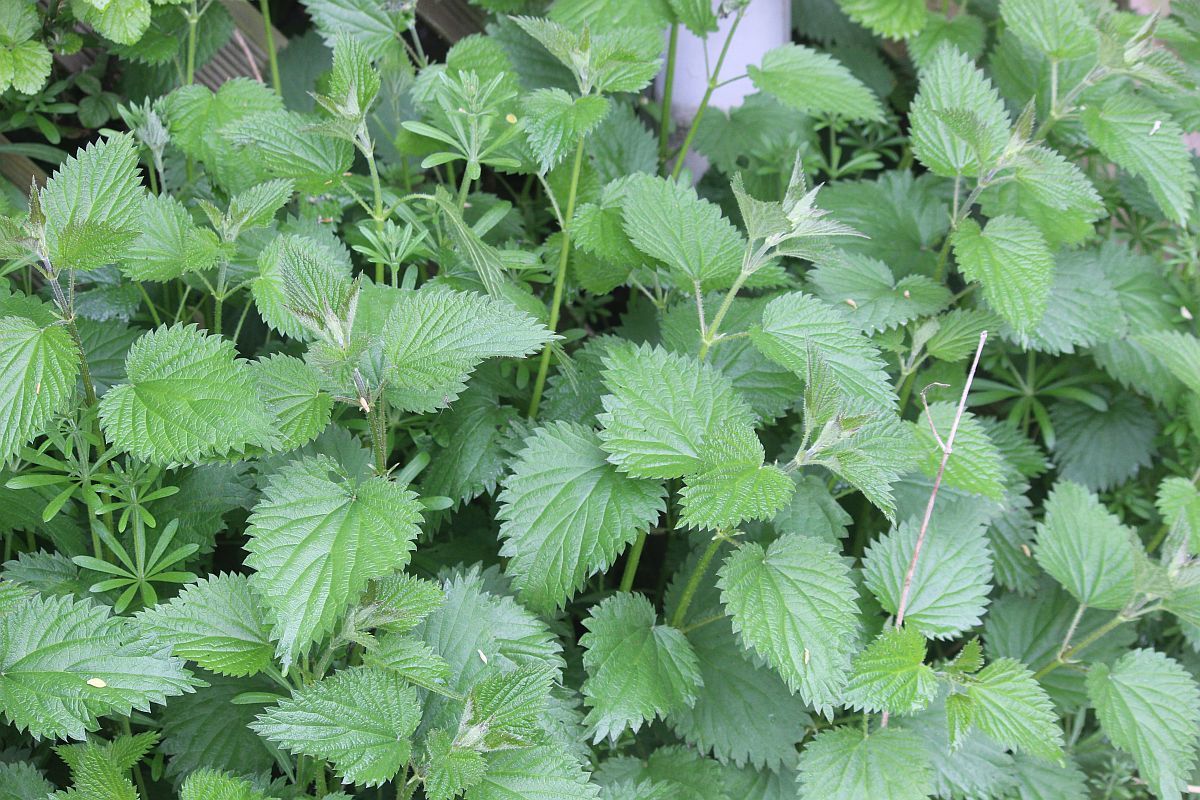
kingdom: Plantae
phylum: Tracheophyta
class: Magnoliopsida
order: Rosales
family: Urticaceae
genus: Urtica
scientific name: Urtica dioica
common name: Common nettle
